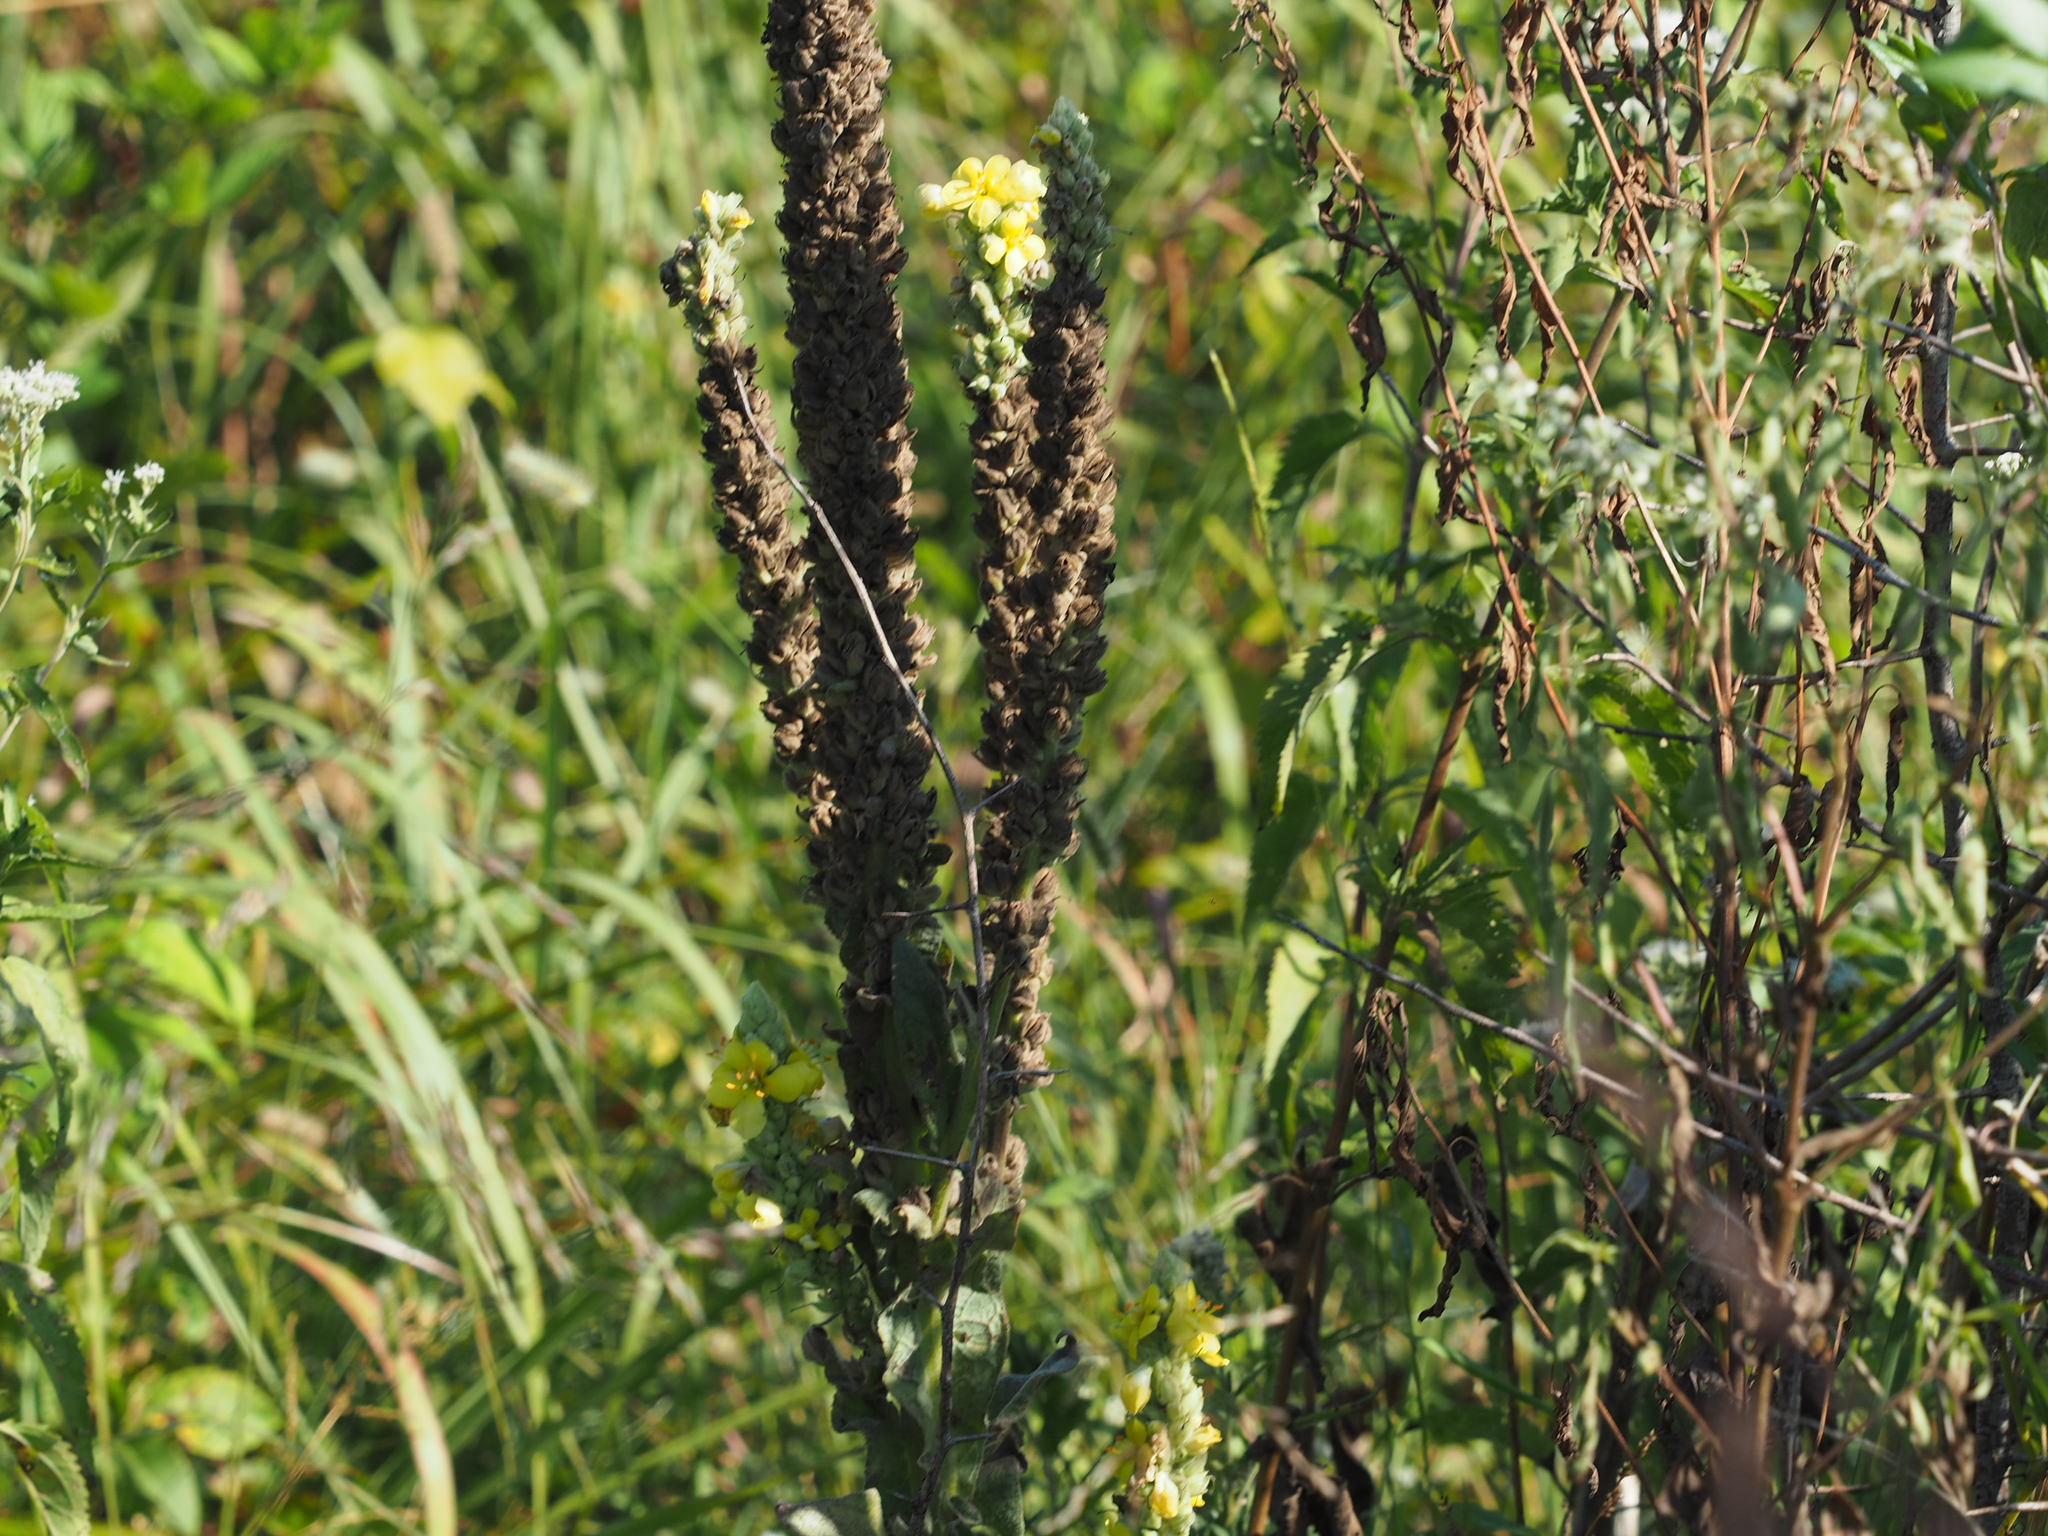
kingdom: Plantae
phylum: Tracheophyta
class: Magnoliopsida
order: Lamiales
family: Scrophulariaceae
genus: Verbascum
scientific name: Verbascum thapsus
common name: Common mullein
